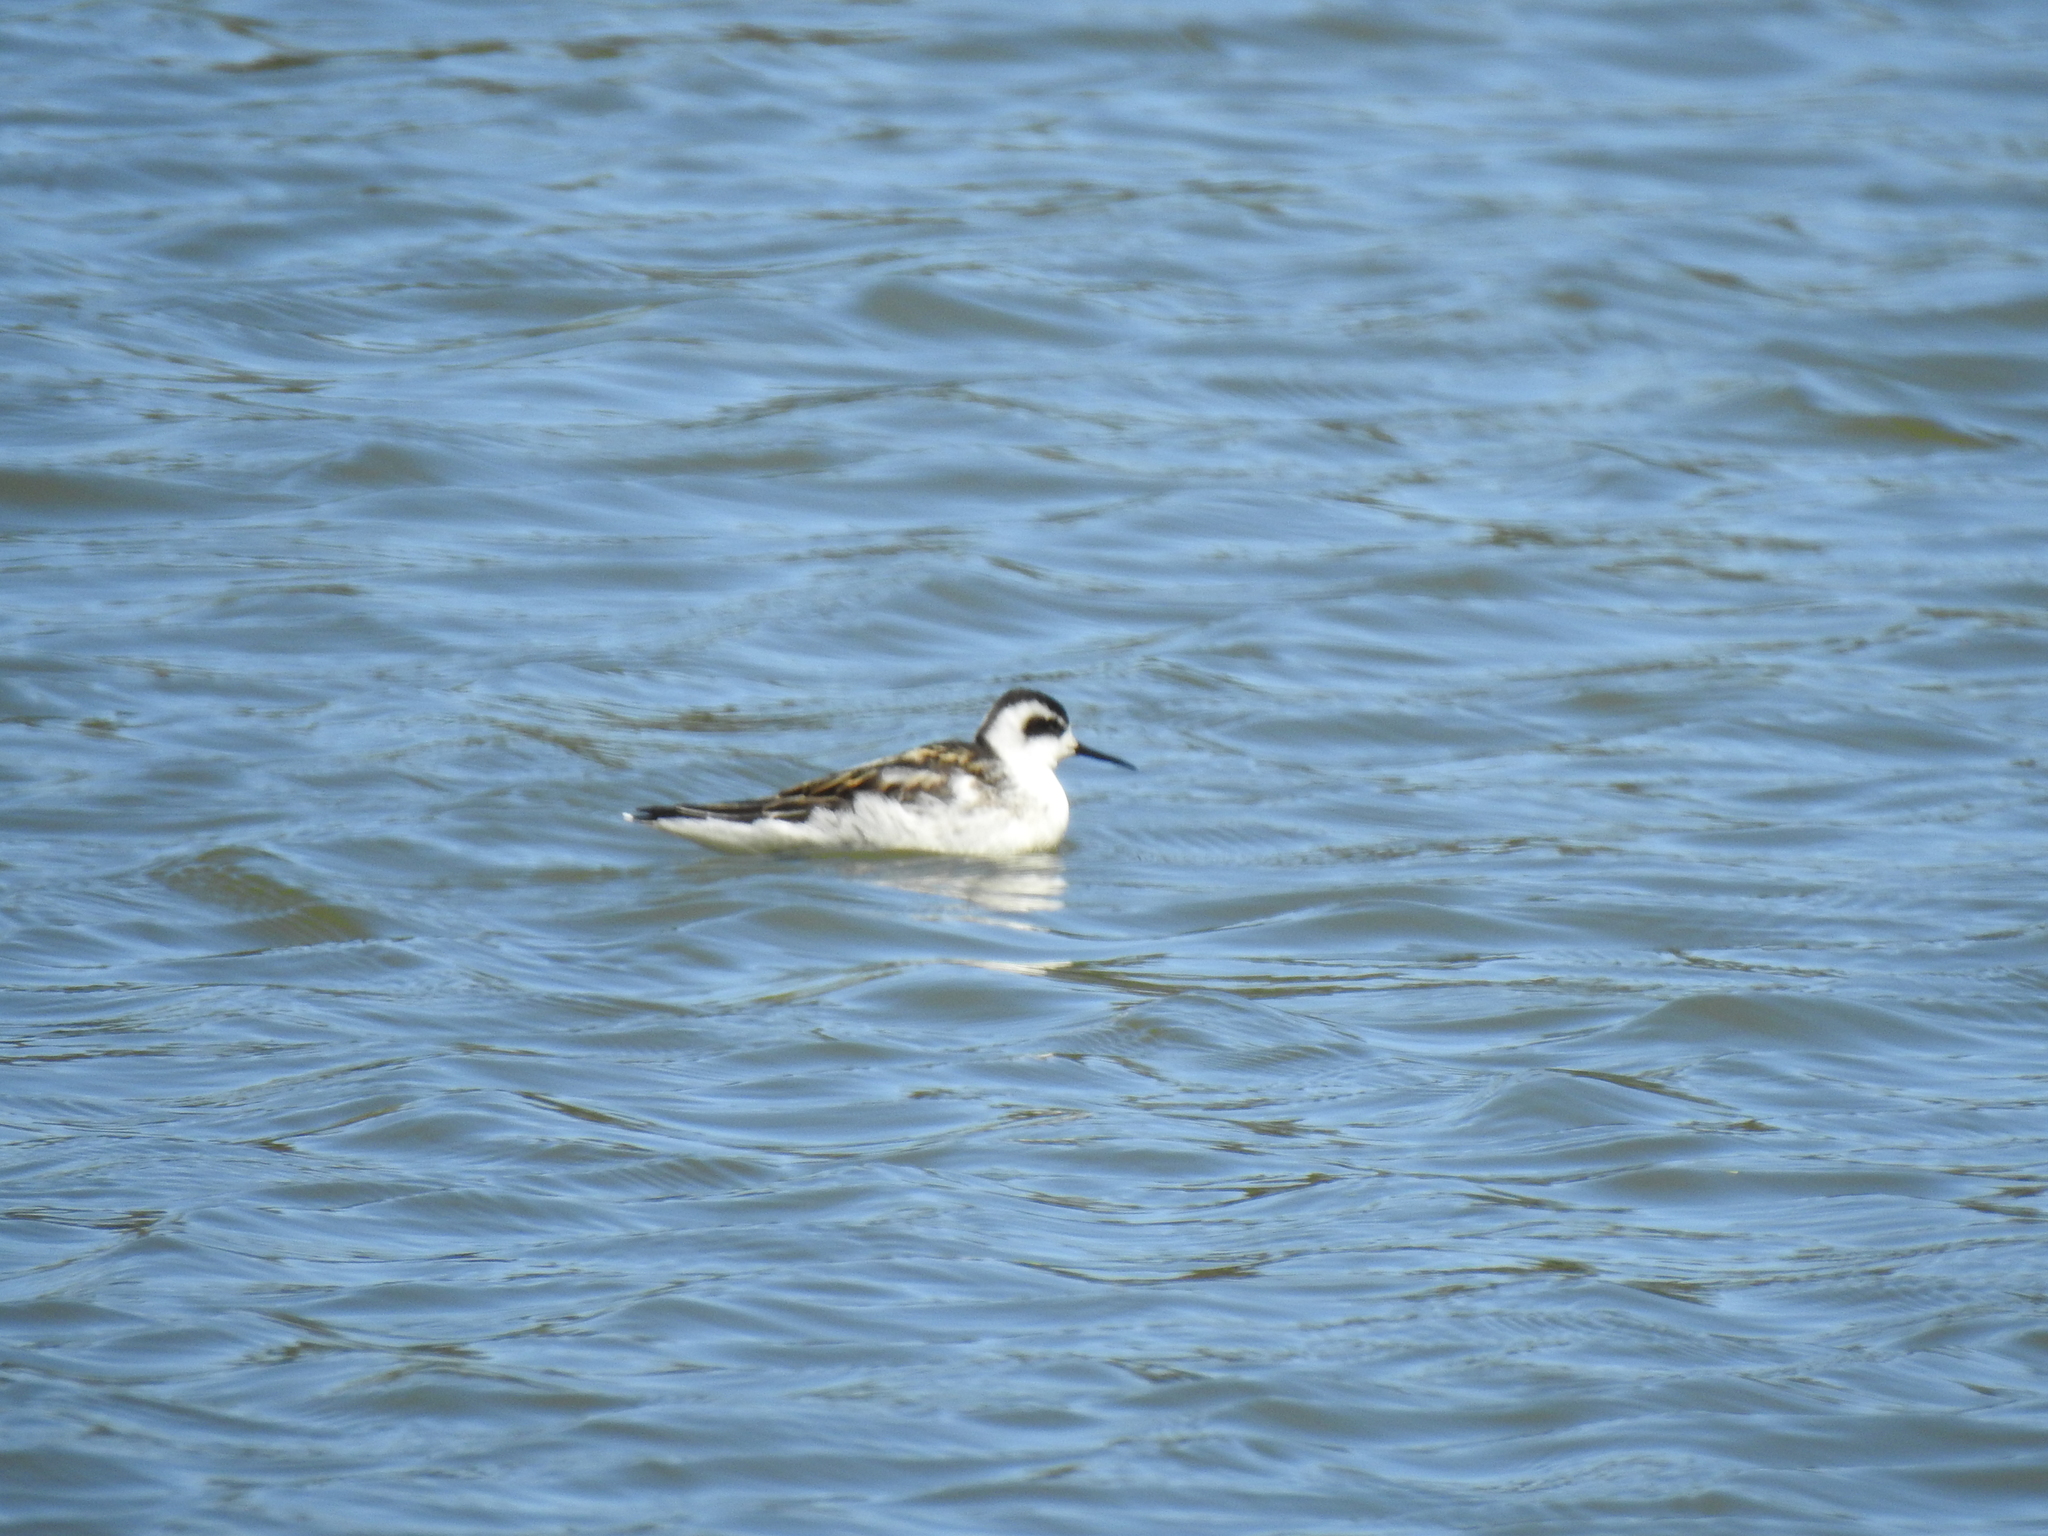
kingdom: Animalia
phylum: Chordata
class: Aves
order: Charadriiformes
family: Scolopacidae
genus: Phalaropus
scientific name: Phalaropus lobatus
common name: Red-necked phalarope
